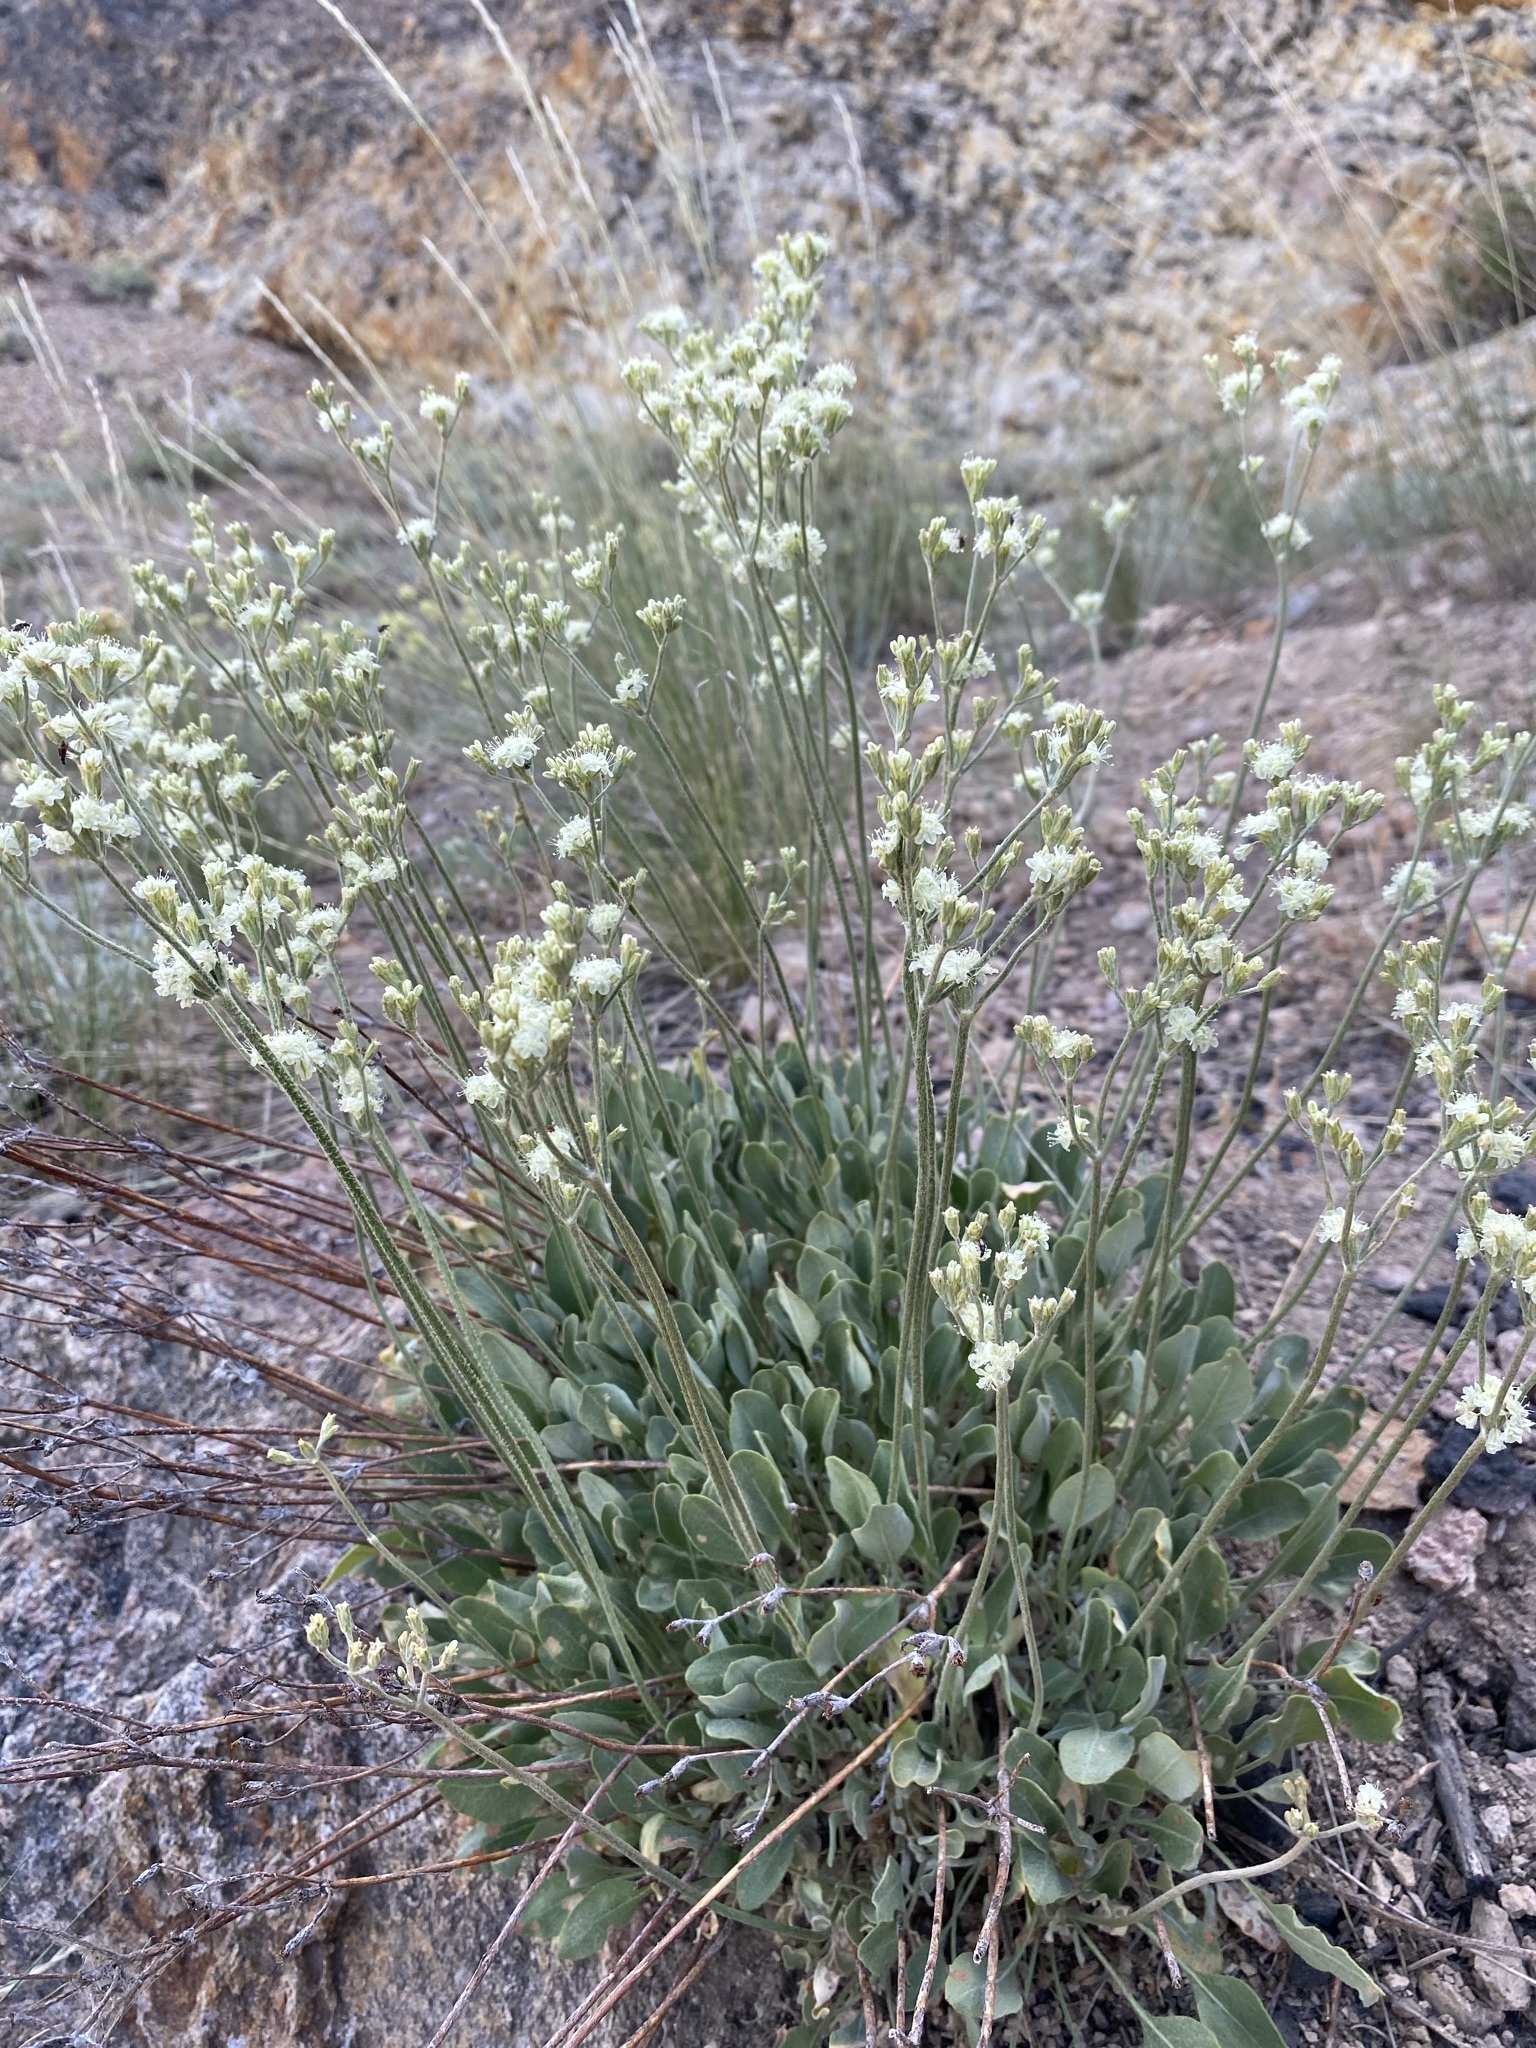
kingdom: Plantae
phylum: Tracheophyta
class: Magnoliopsida
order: Caryophyllales
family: Polygonaceae
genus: Eriogonum
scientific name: Eriogonum strictum
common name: Blue mountain buckwheat
